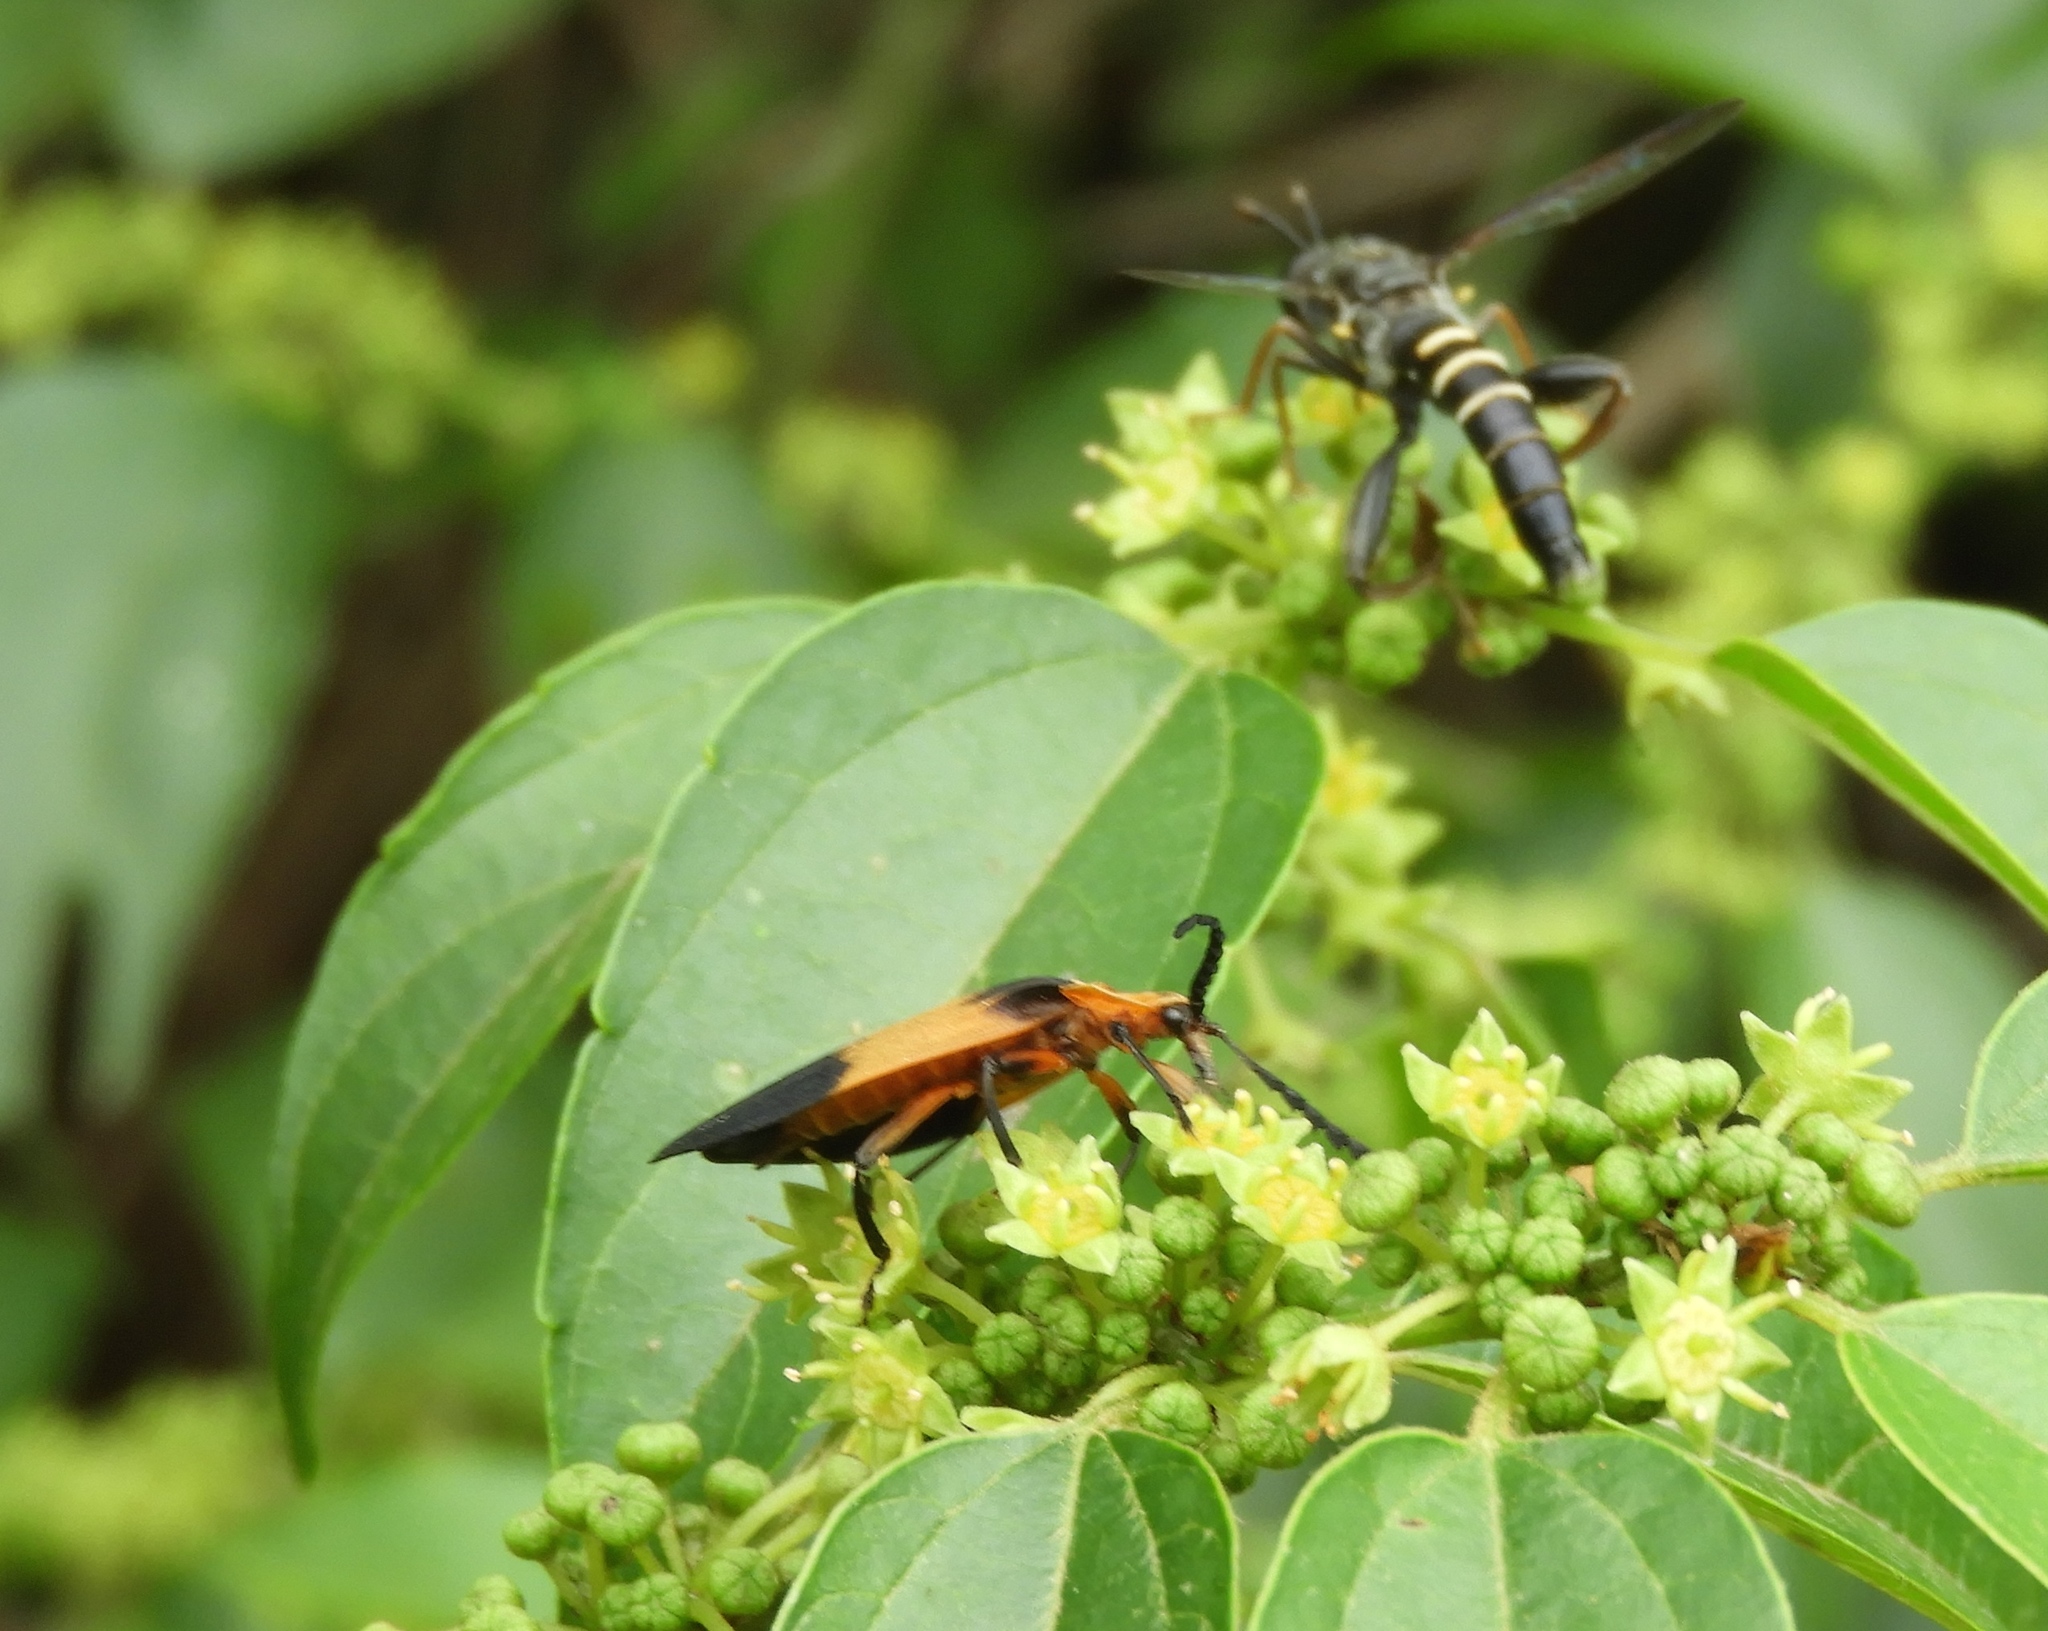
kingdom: Animalia
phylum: Arthropoda
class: Insecta
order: Coleoptera
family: Lycidae
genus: Lycus
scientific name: Lycus
